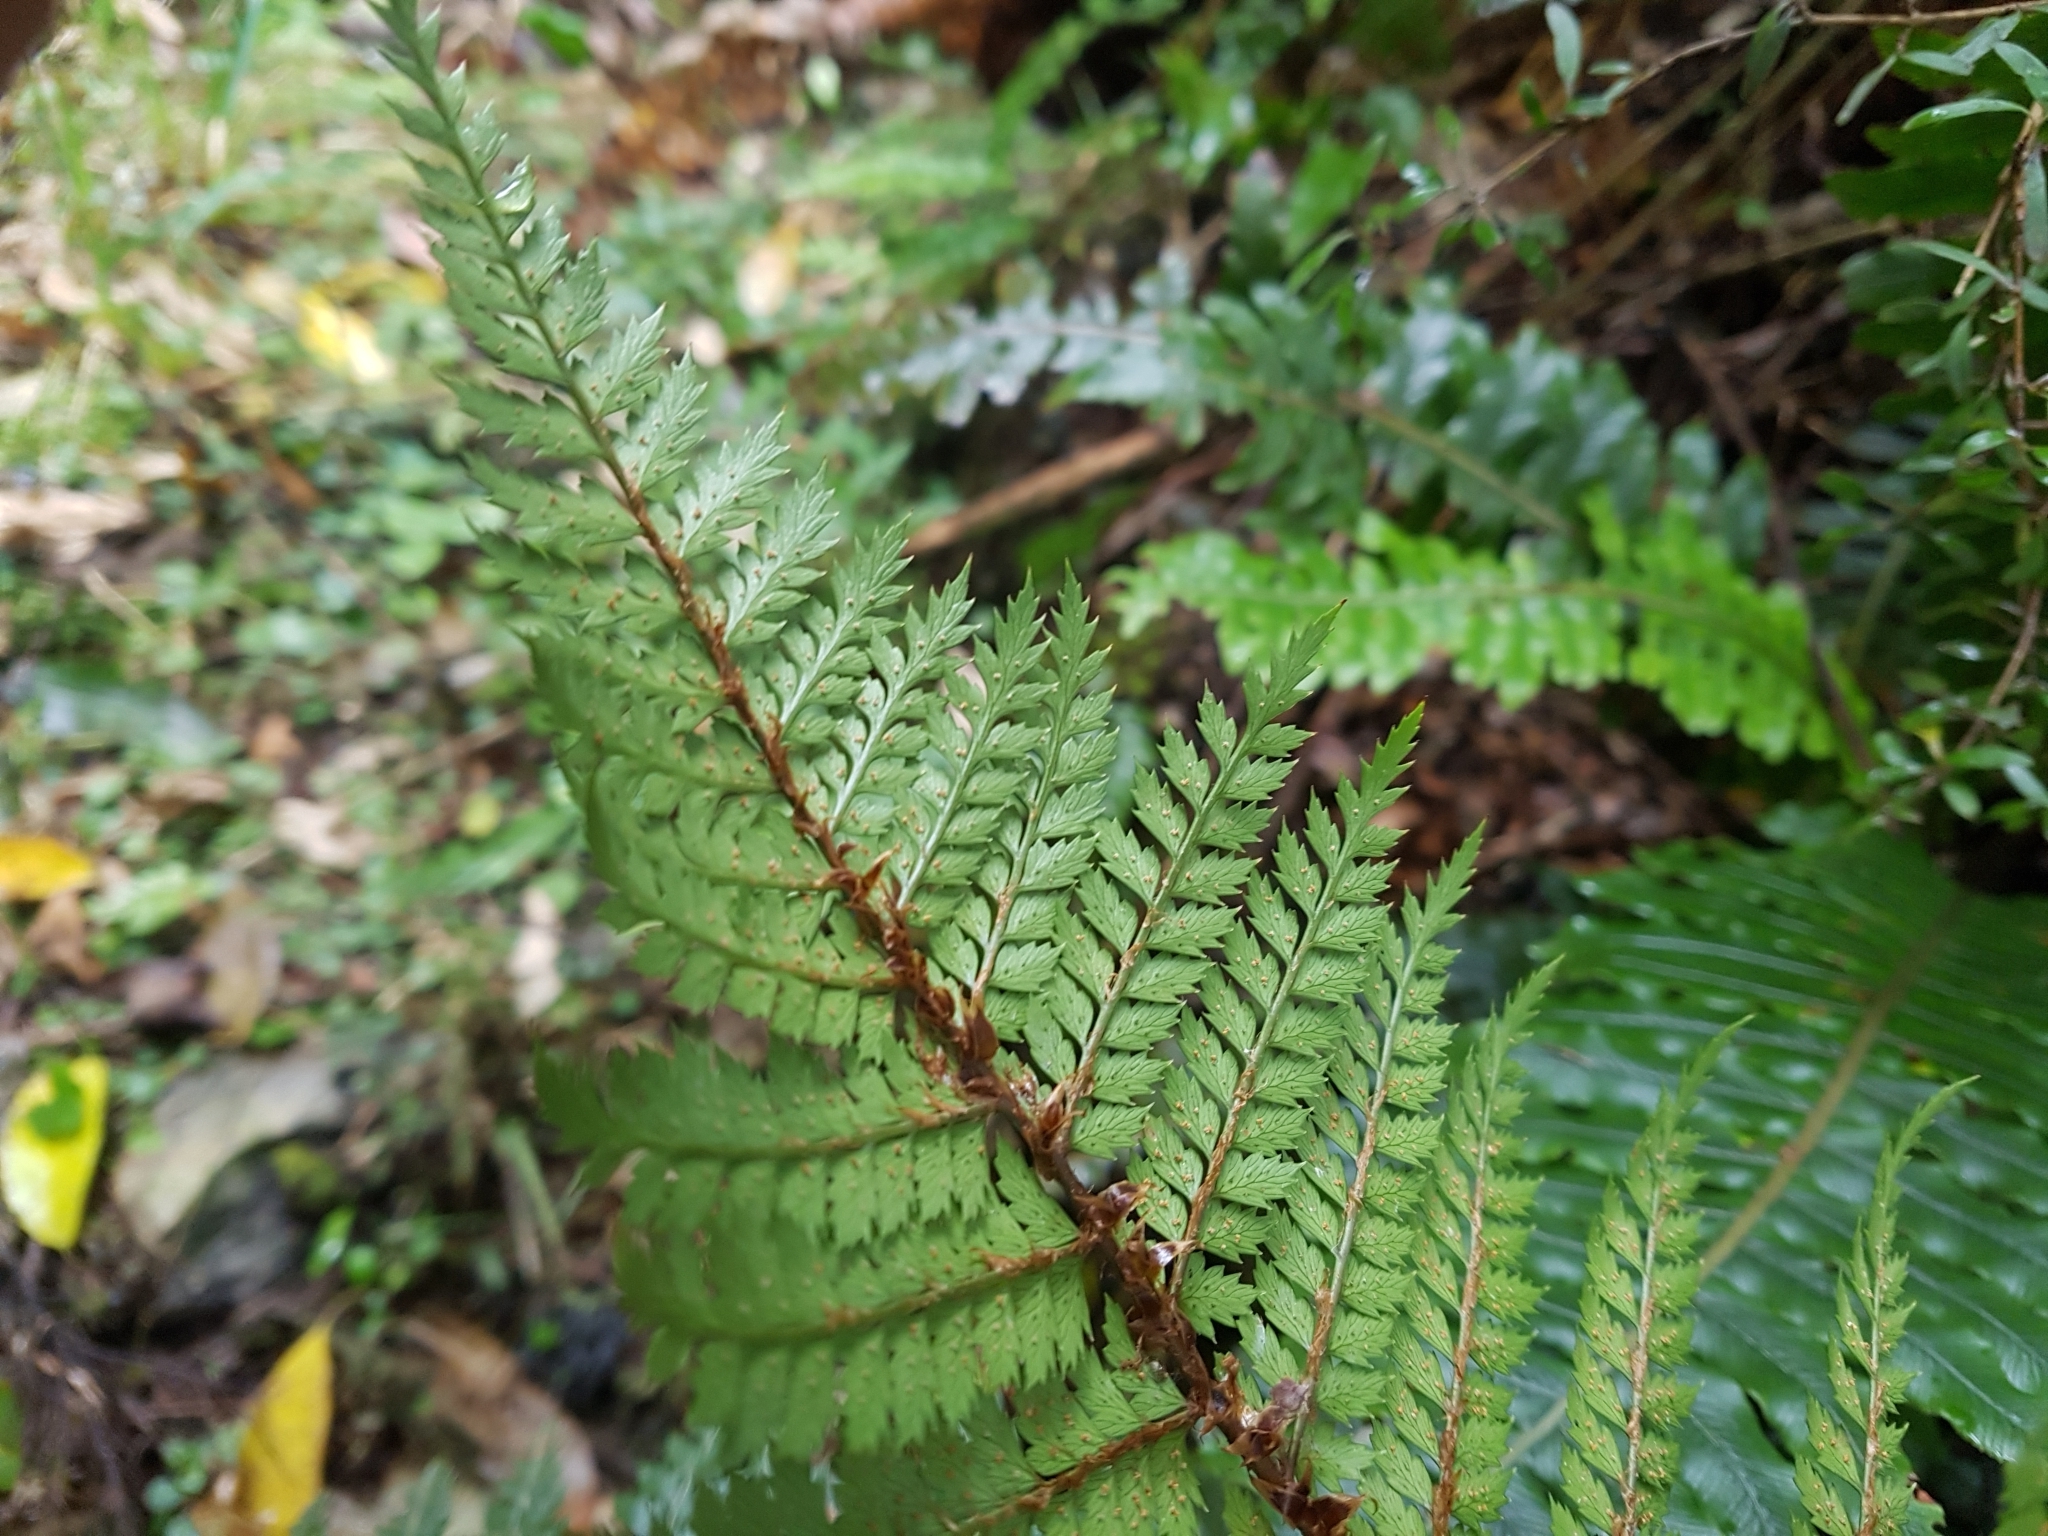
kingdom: Plantae
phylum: Tracheophyta
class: Polypodiopsida
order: Polypodiales
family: Dryopteridaceae
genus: Polystichum
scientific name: Polystichum vestitum
